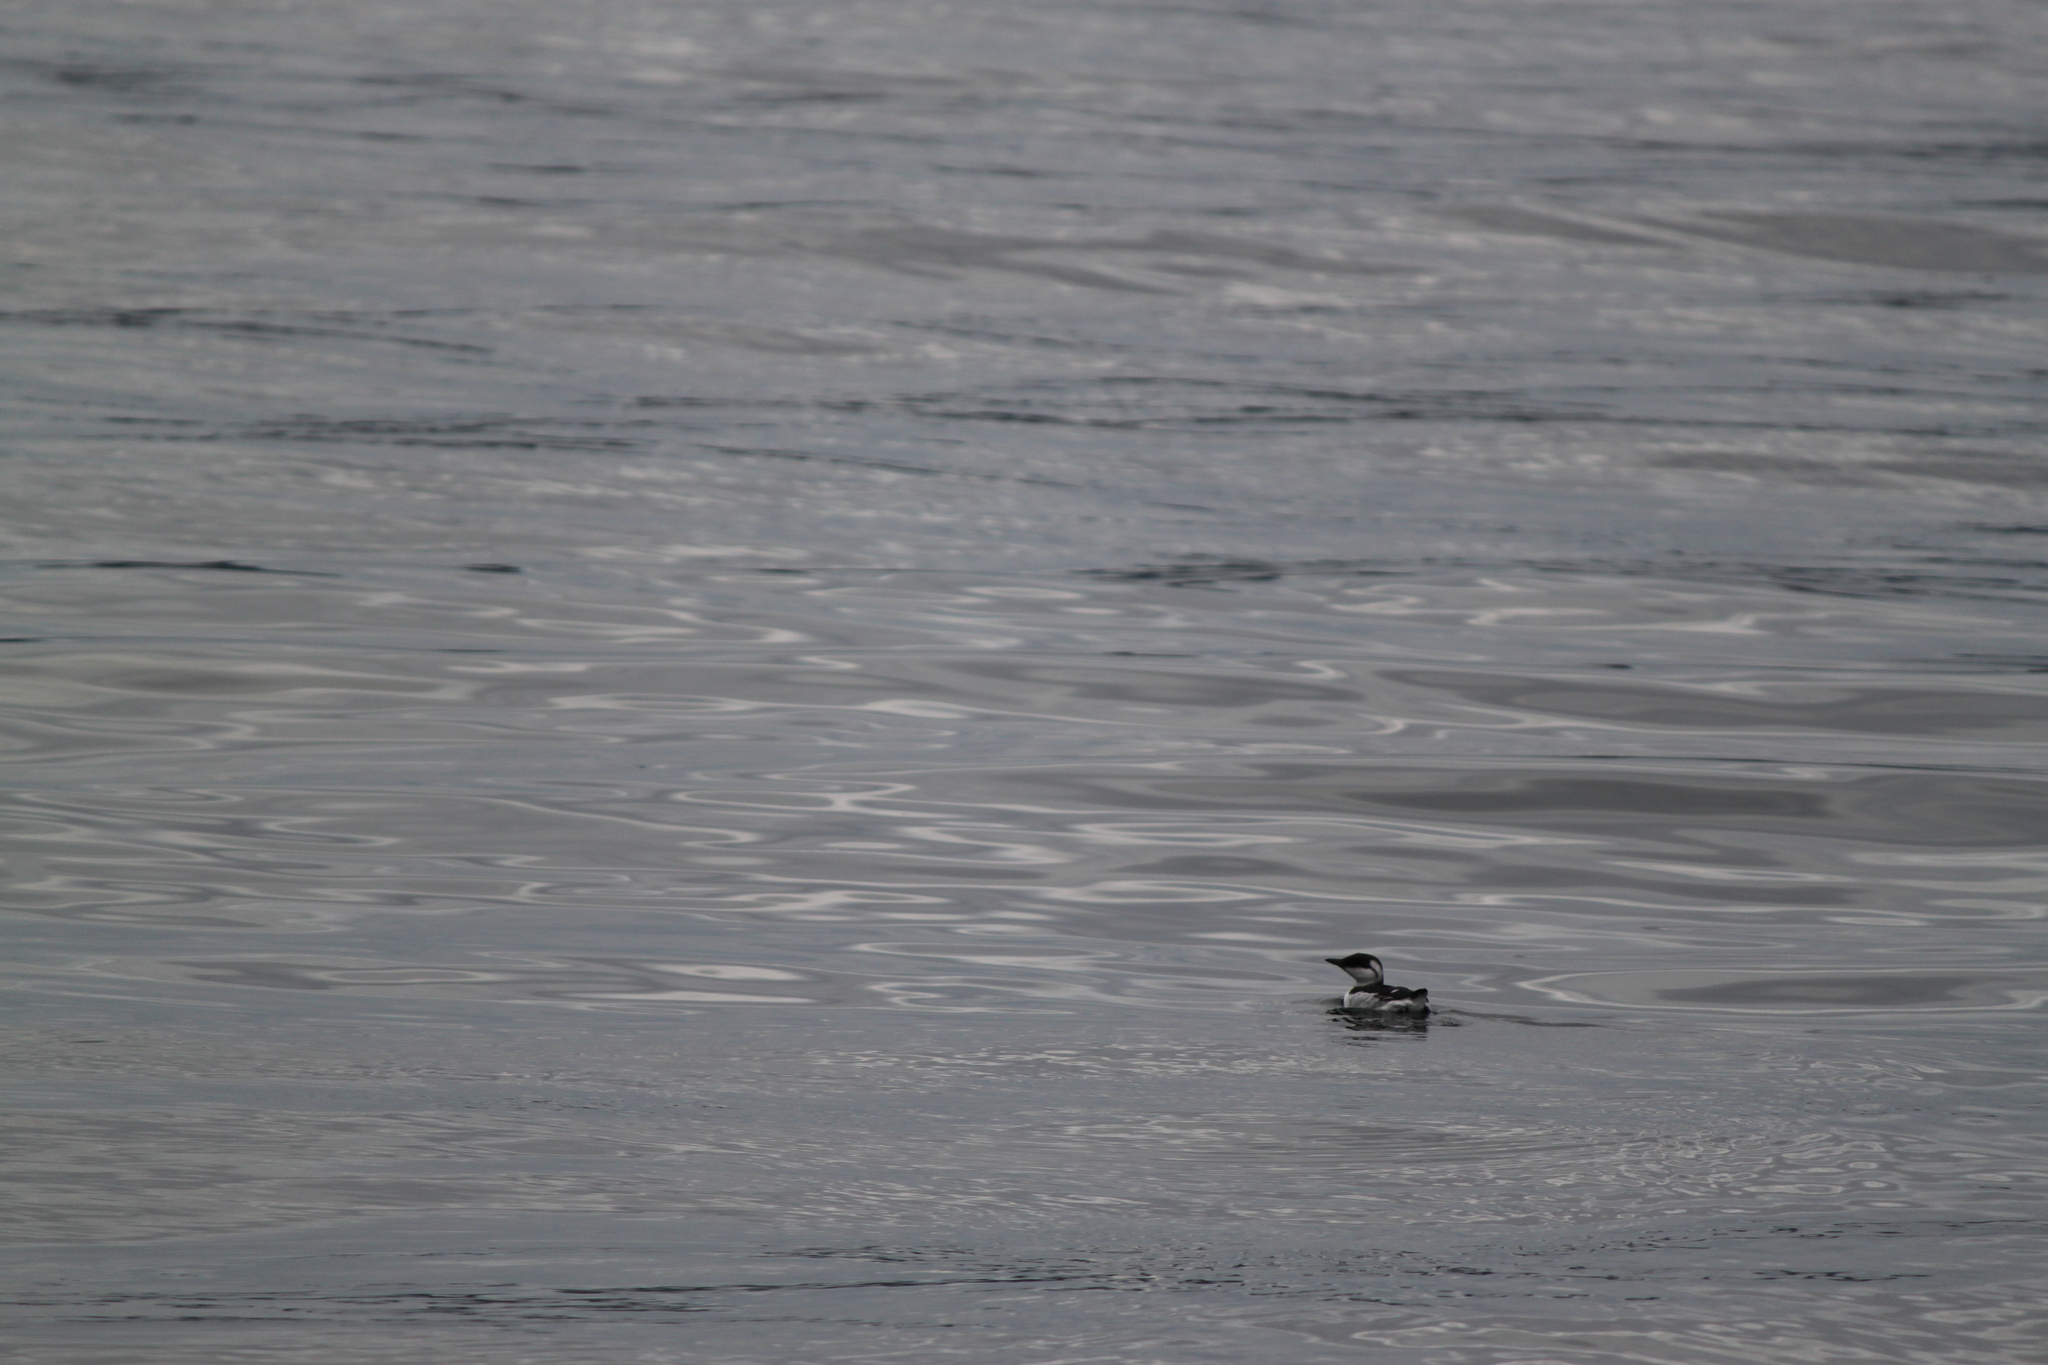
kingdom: Animalia
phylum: Chordata
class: Aves
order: Charadriiformes
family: Alcidae
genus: Uria
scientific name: Uria aalge
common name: Common murre
